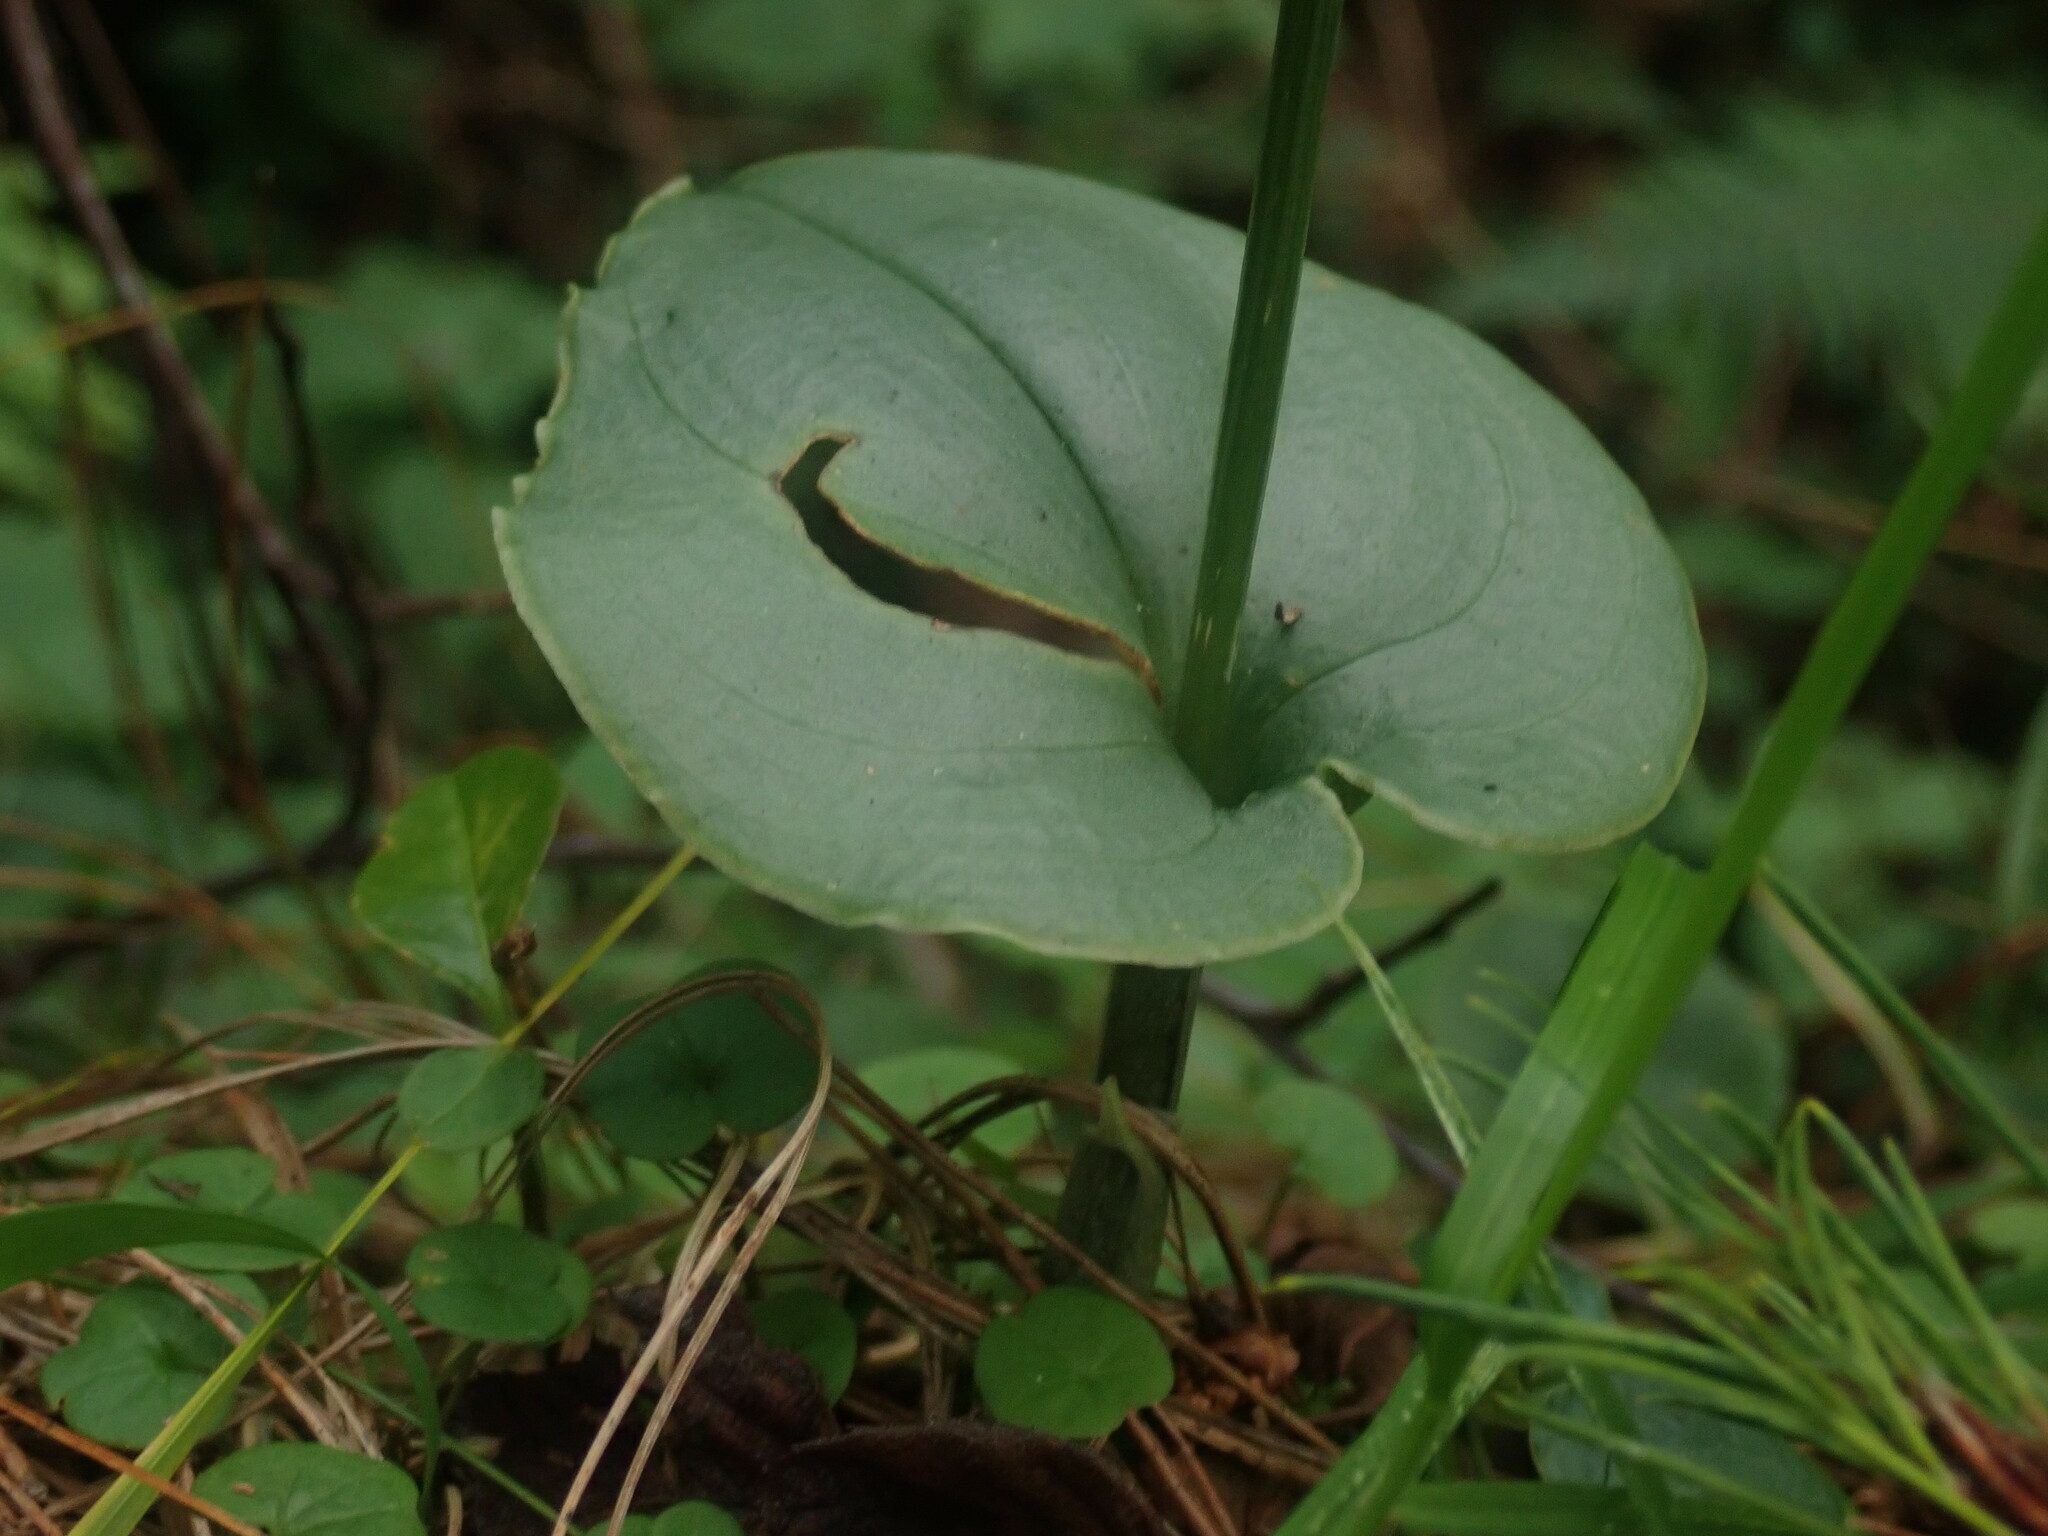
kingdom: Plantae
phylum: Tracheophyta
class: Liliopsida
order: Asparagales
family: Orchidaceae
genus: Malaxis
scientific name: Malaxis maianthemifolia
